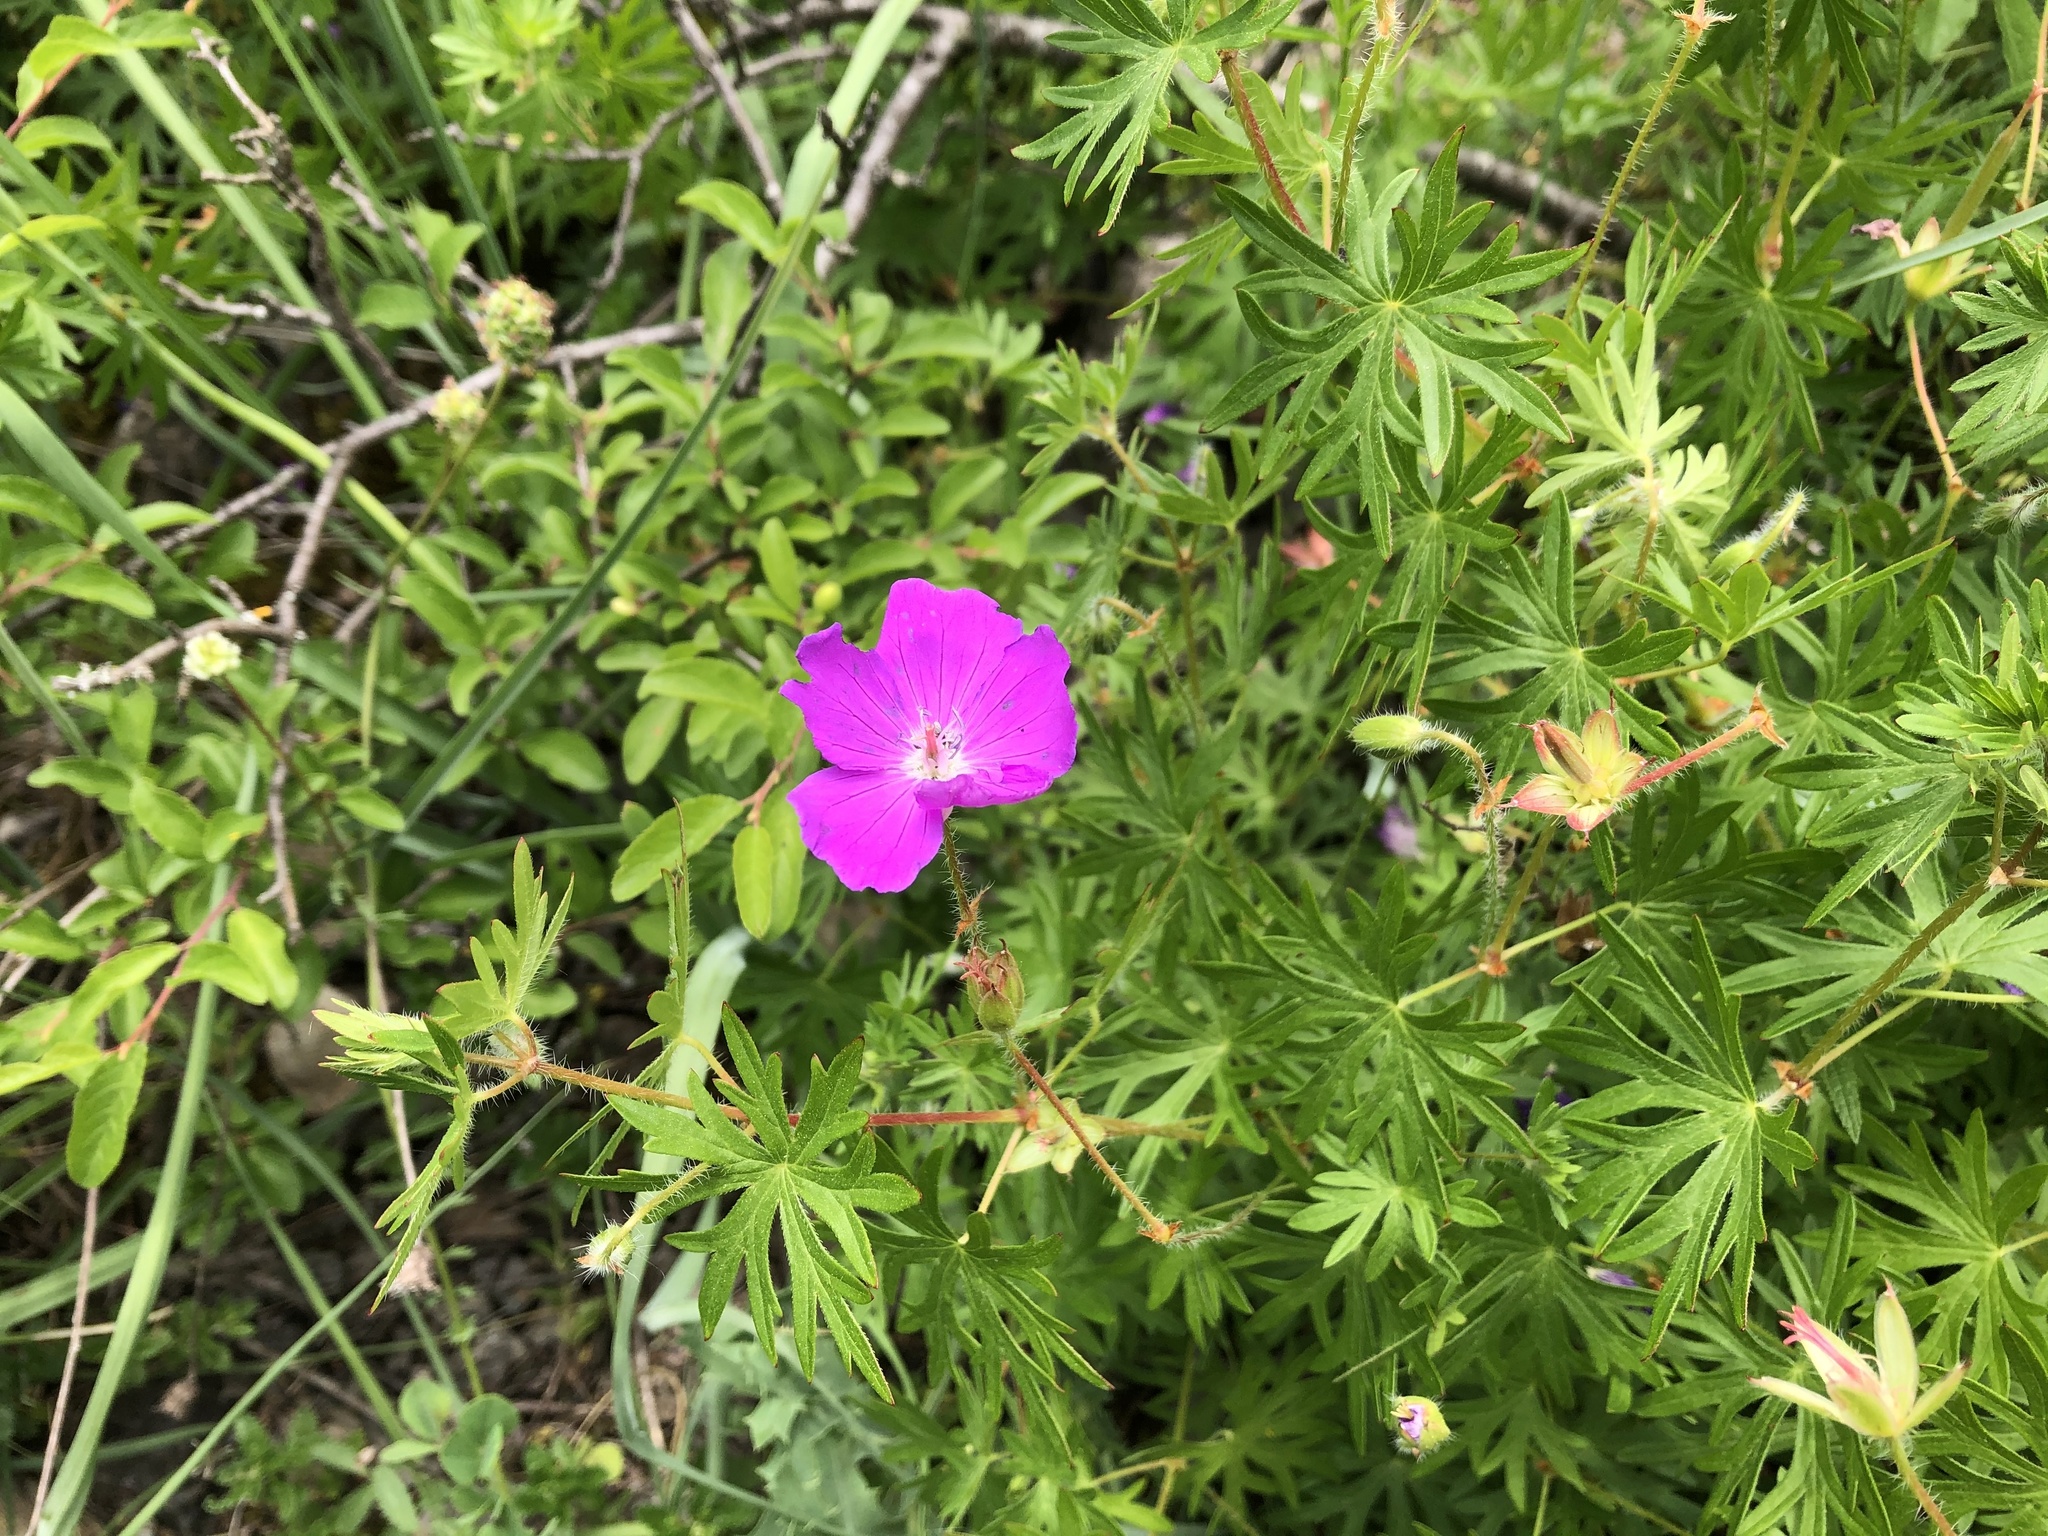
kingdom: Plantae
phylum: Tracheophyta
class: Magnoliopsida
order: Geraniales
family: Geraniaceae
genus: Geranium
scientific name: Geranium sanguineum
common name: Bloody crane's-bill
